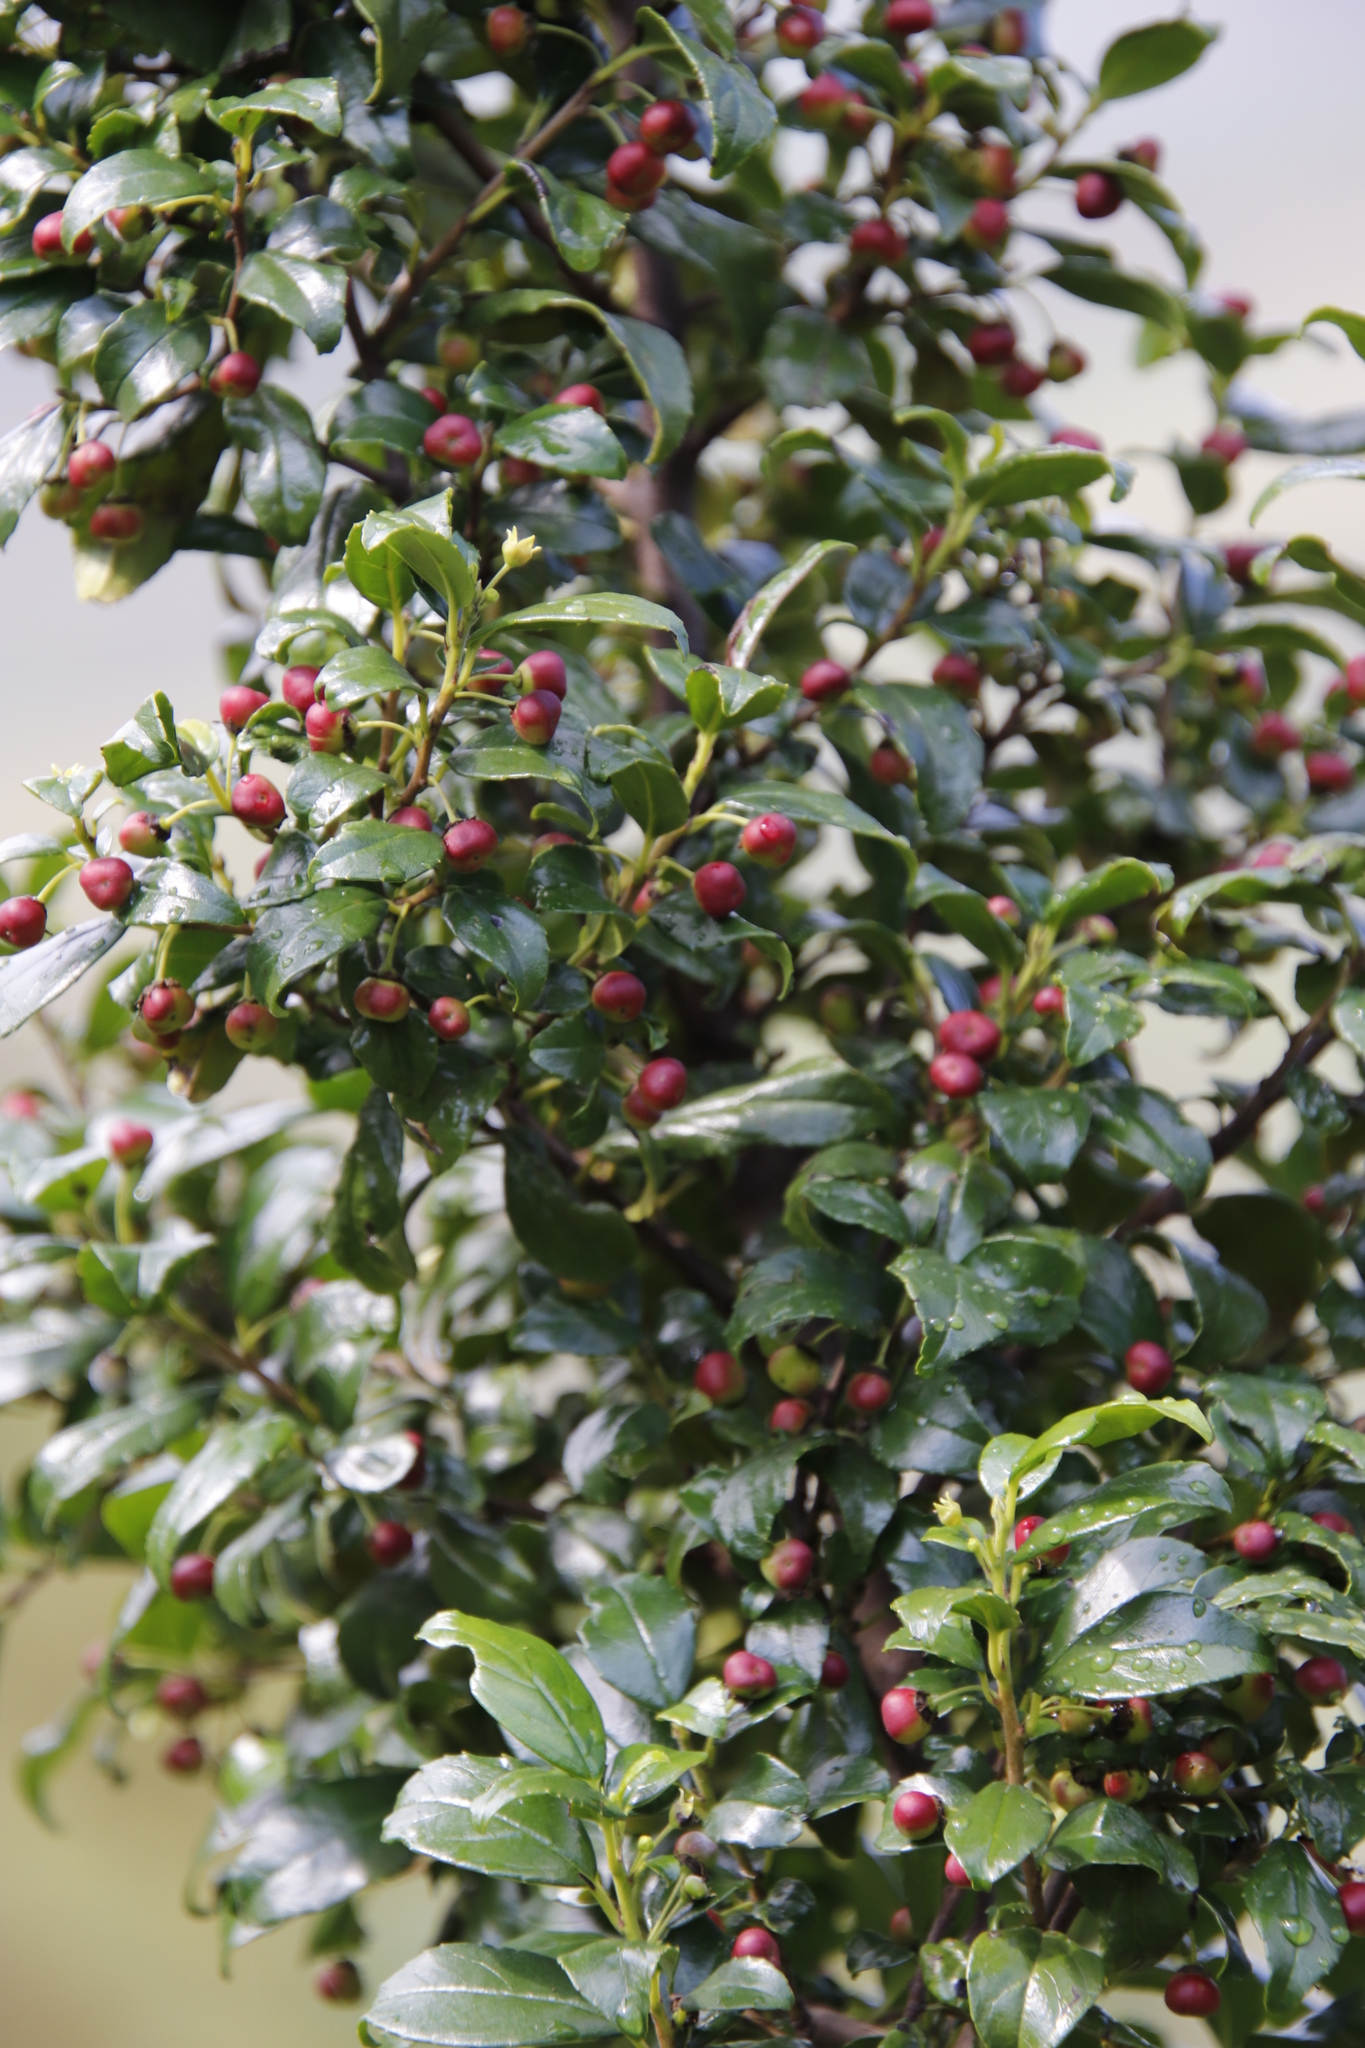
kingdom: Plantae
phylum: Tracheophyta
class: Magnoliopsida
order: Rosales
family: Rhamnaceae
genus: Rhamnus
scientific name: Rhamnus prinoides
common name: Dogwood
